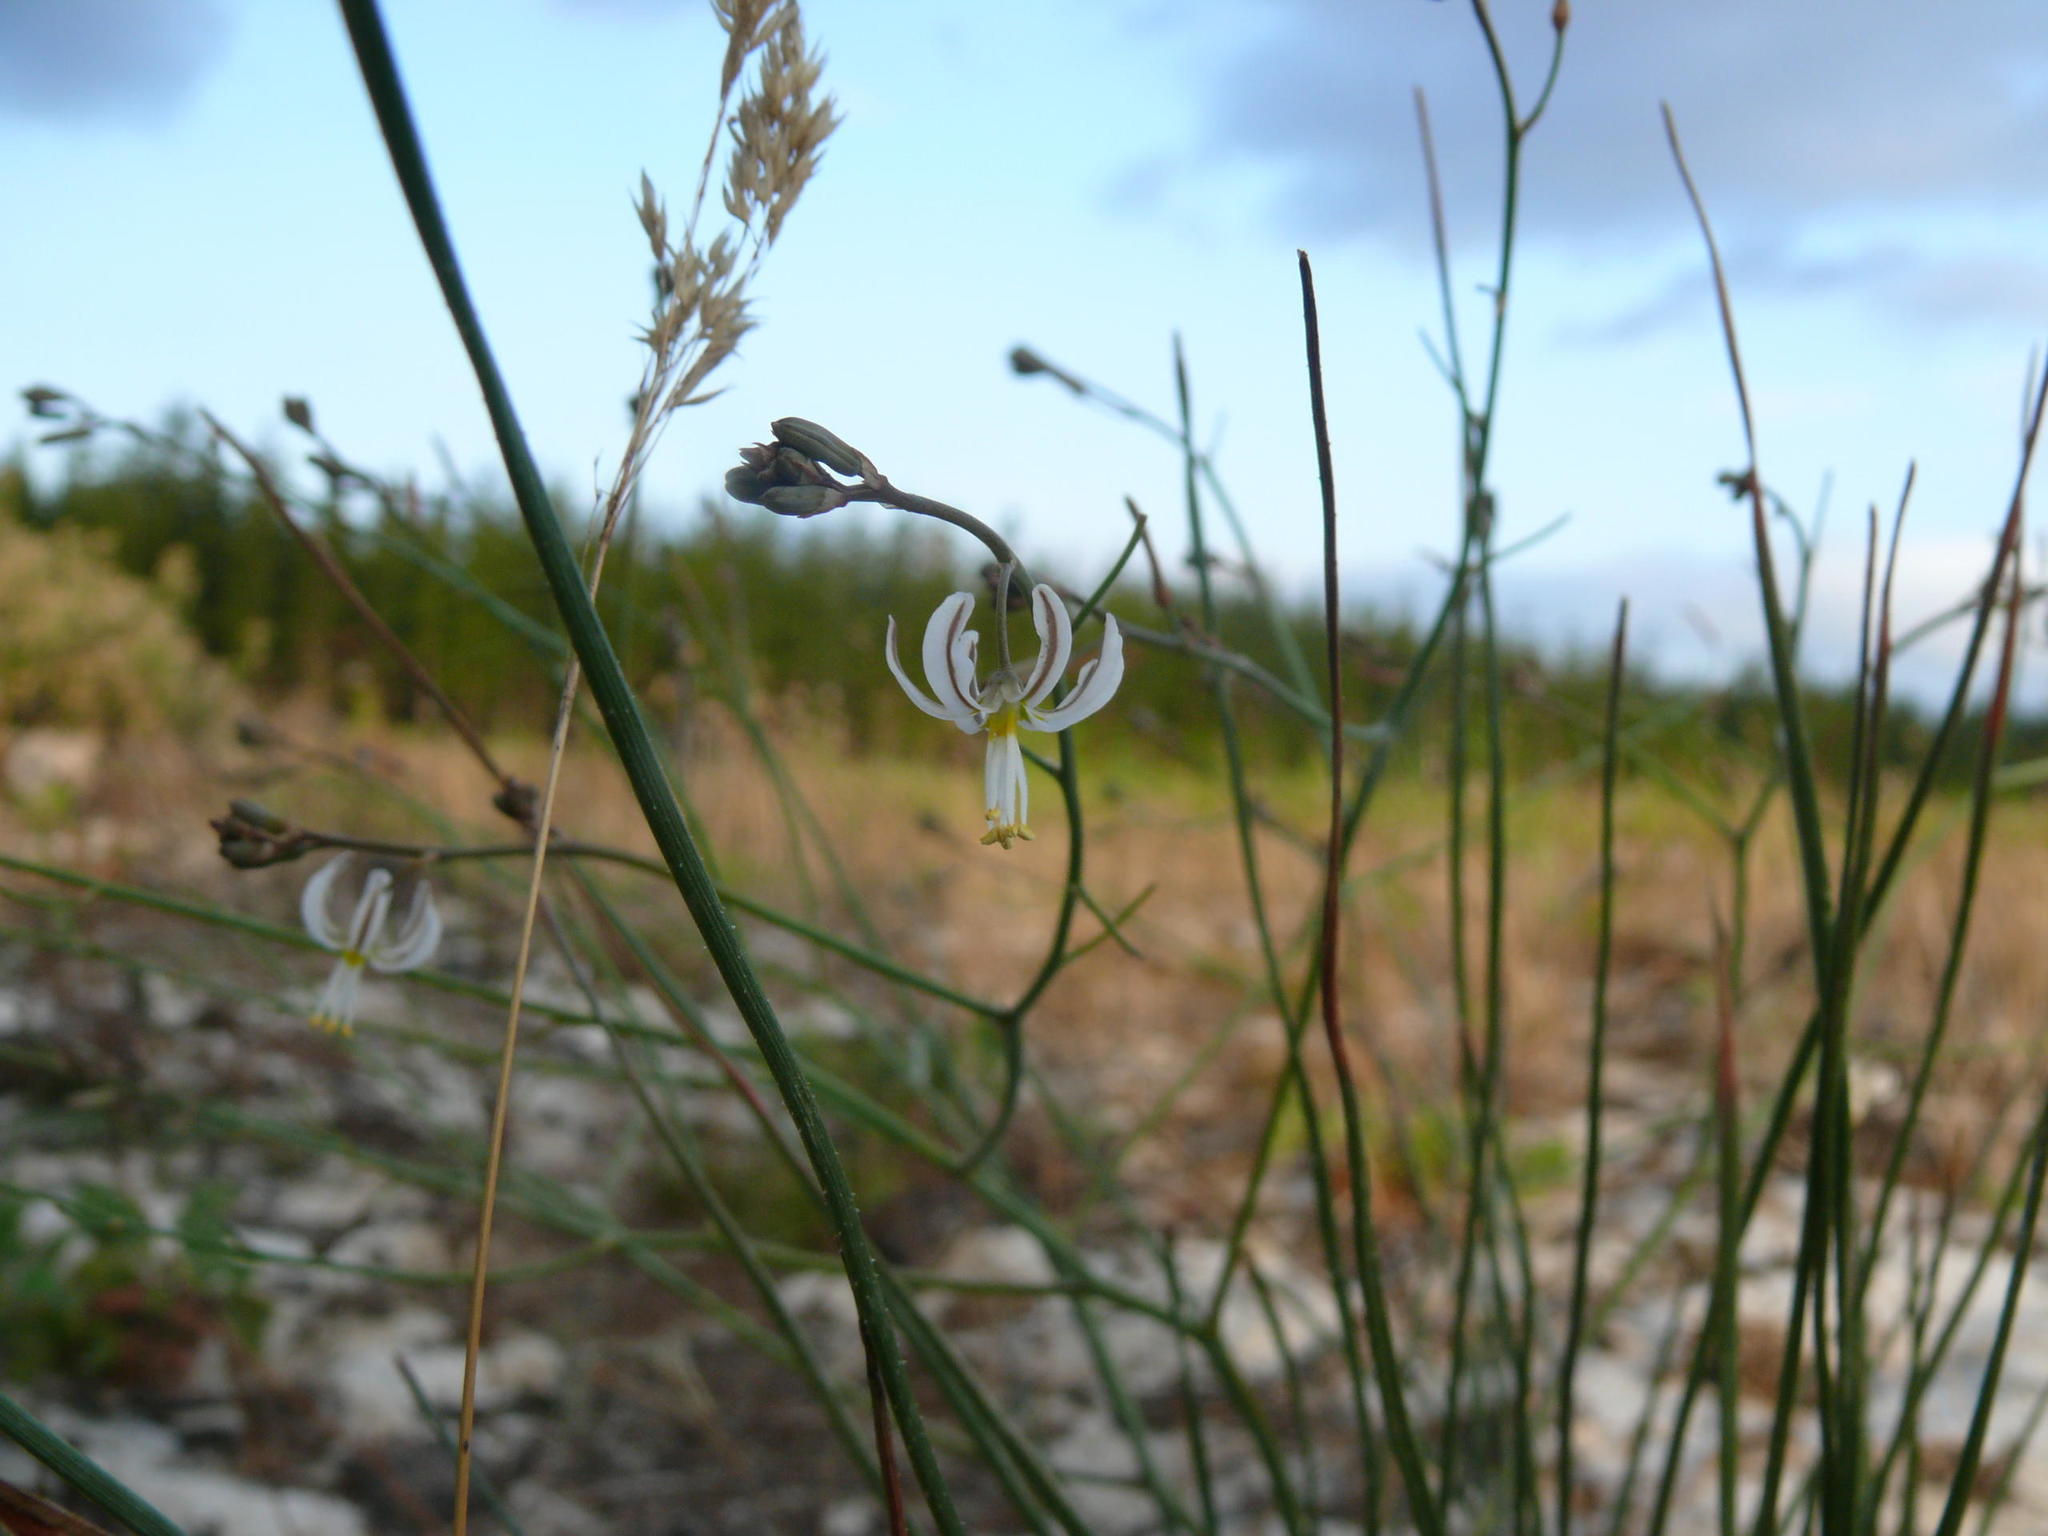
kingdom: Plantae
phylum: Tracheophyta
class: Liliopsida
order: Asparagales
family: Asphodelaceae
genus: Trachyandra
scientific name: Trachyandra divaricata
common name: Dune onionweed
